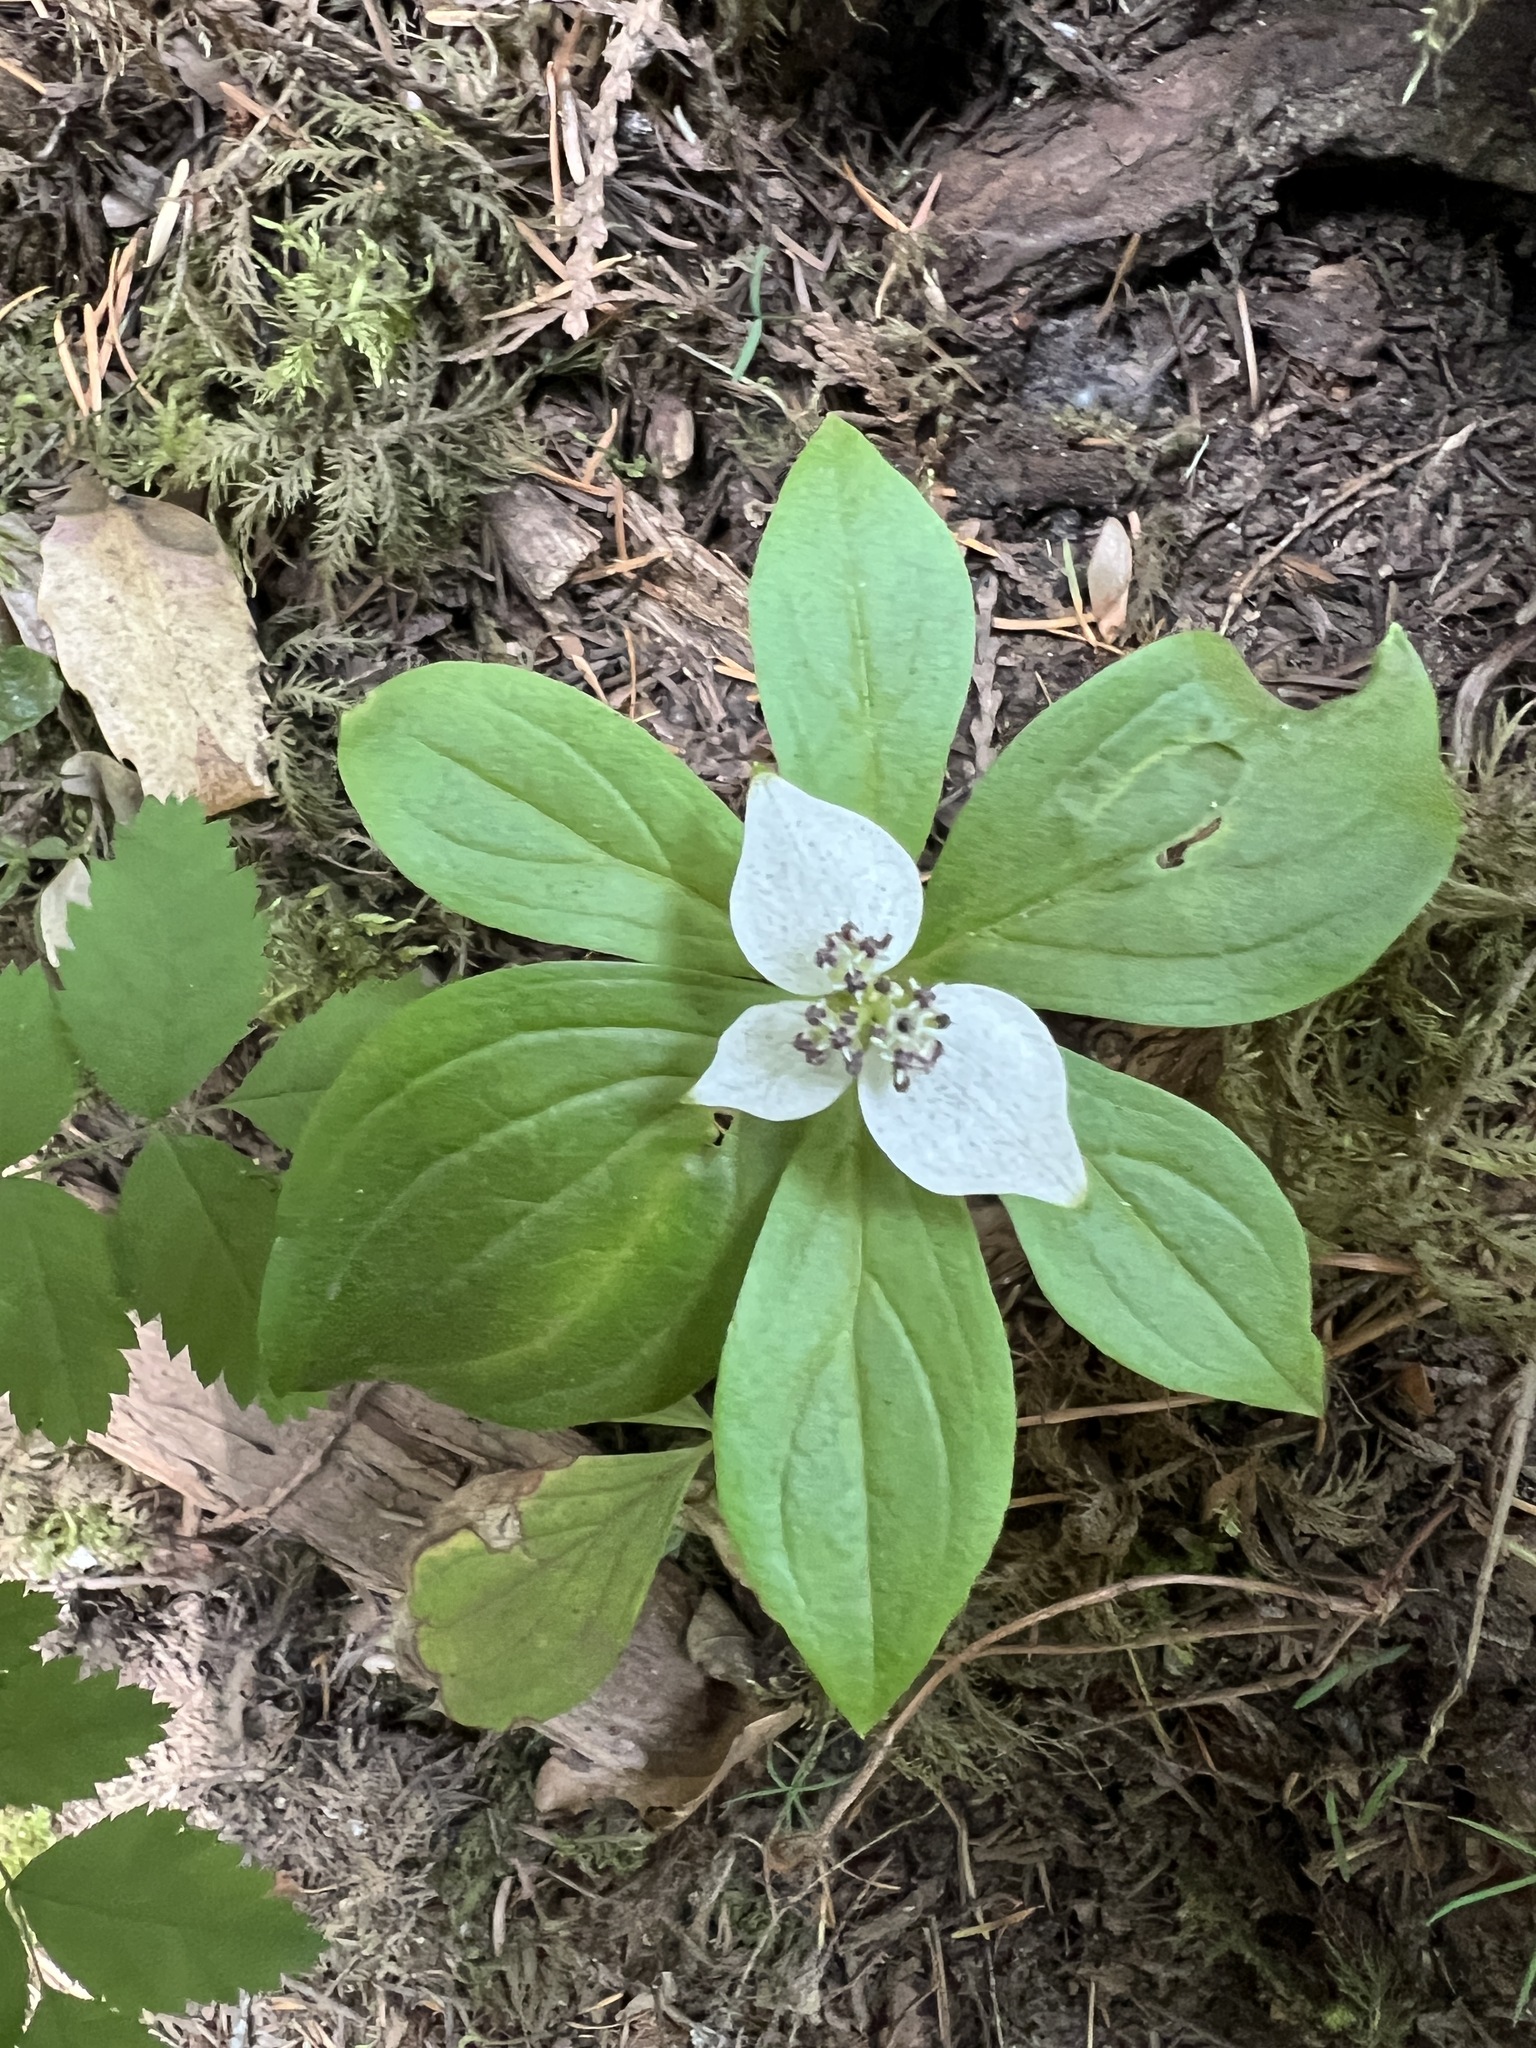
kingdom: Plantae
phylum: Tracheophyta
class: Magnoliopsida
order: Cornales
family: Cornaceae
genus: Cornus
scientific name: Cornus unalaschkensis
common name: Alaska bunchberry
